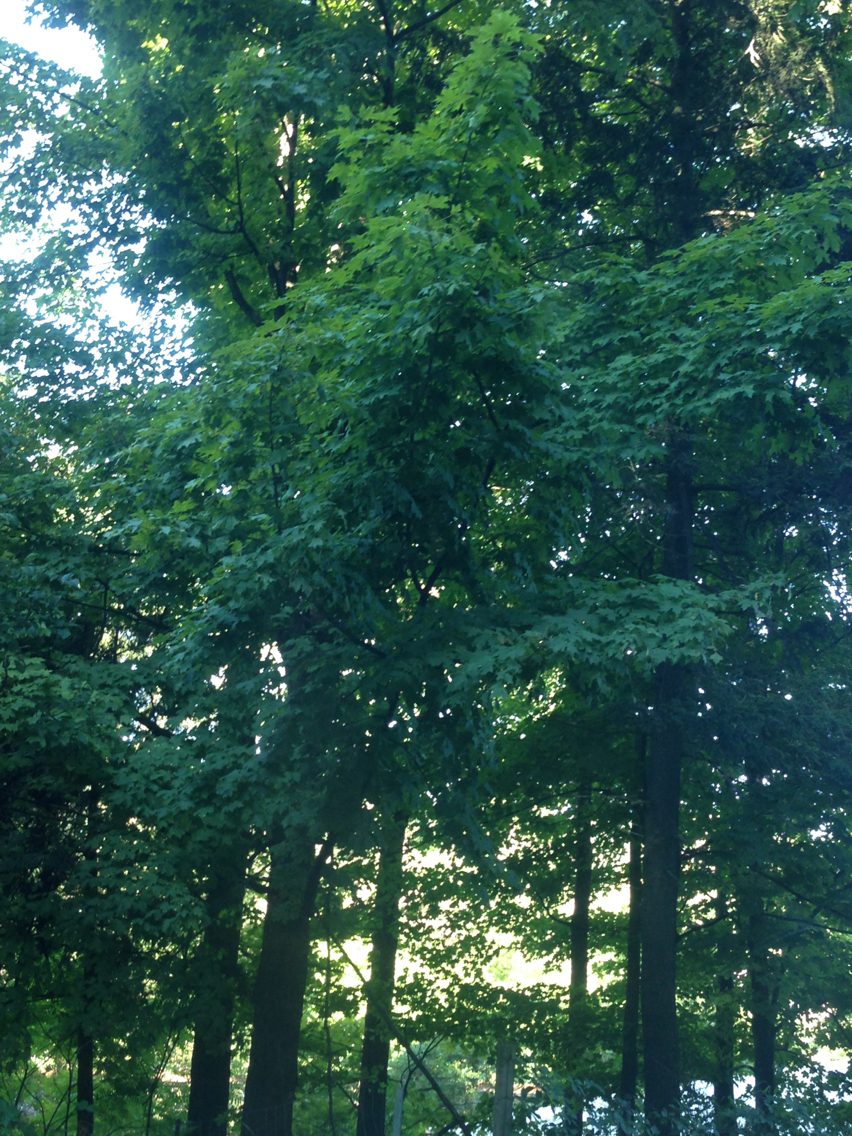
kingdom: Plantae
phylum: Tracheophyta
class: Magnoliopsida
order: Sapindales
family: Sapindaceae
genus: Acer
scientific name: Acer saccharum
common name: Sugar maple
